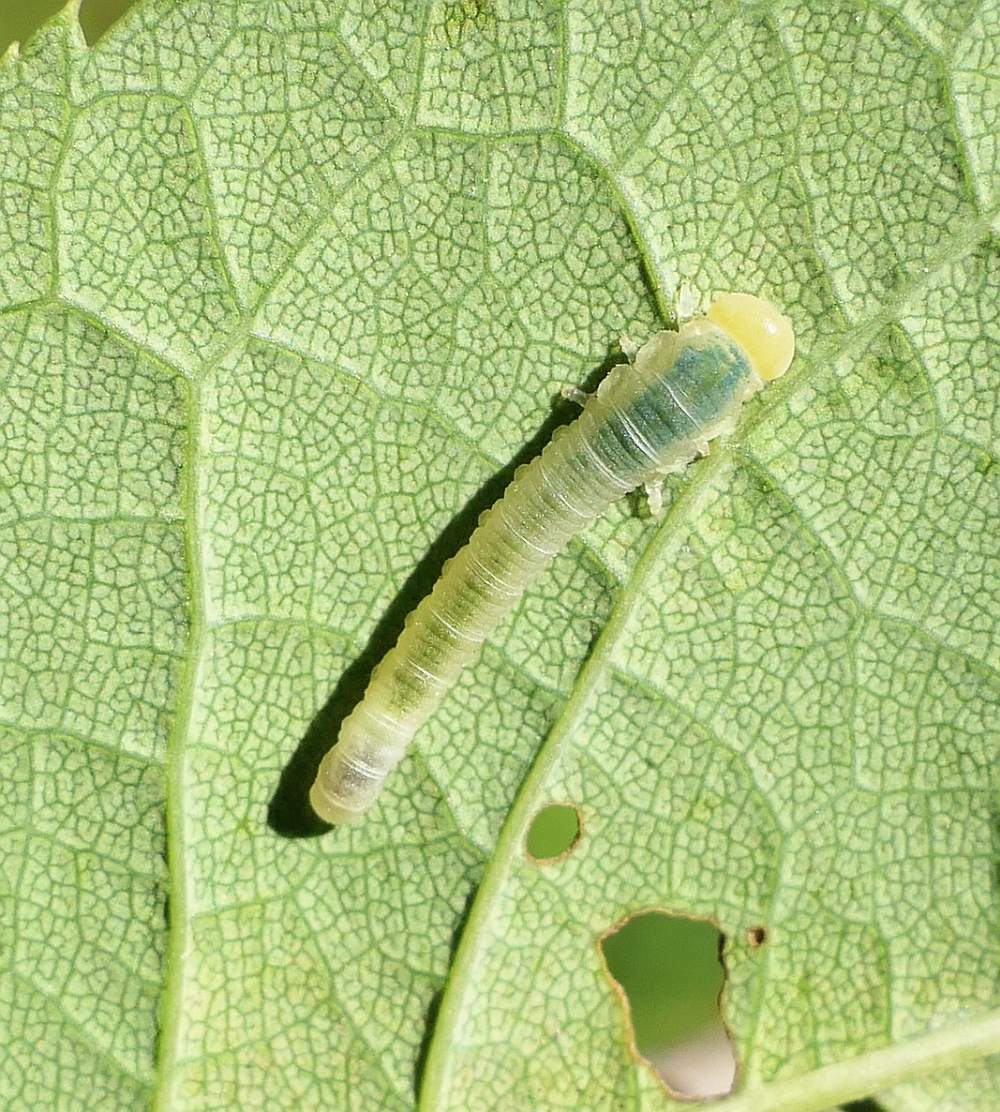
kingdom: Animalia
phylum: Arthropoda
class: Insecta
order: Hymenoptera
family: Tenthredinidae
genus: Dineura
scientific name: Dineura militaris
